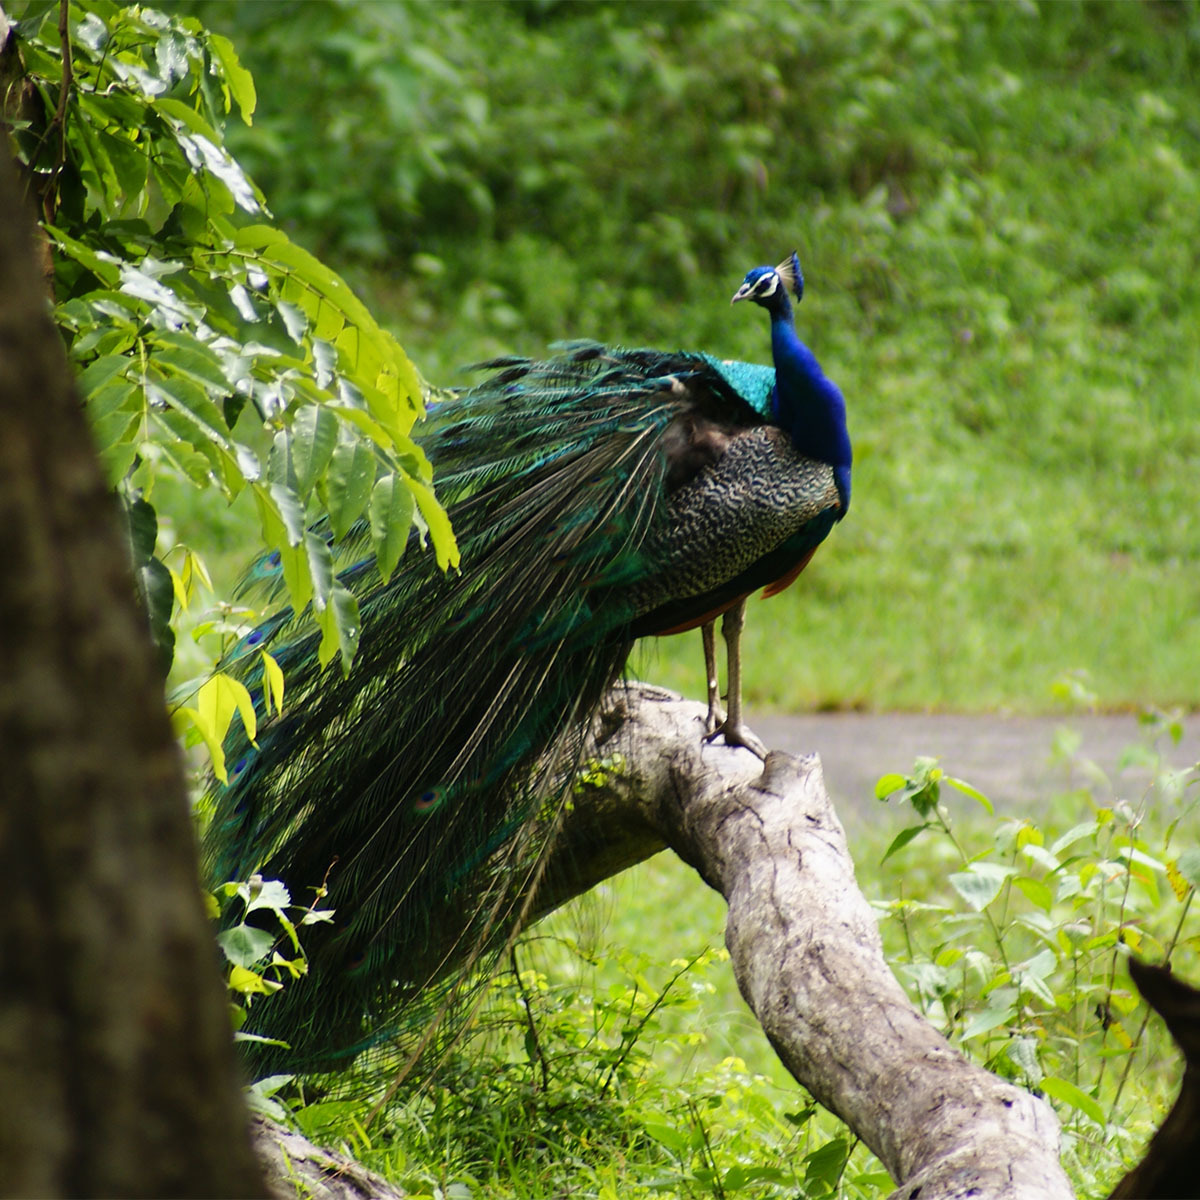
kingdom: Animalia
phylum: Chordata
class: Aves
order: Galliformes
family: Phasianidae
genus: Pavo
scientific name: Pavo cristatus
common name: Indian peafowl
